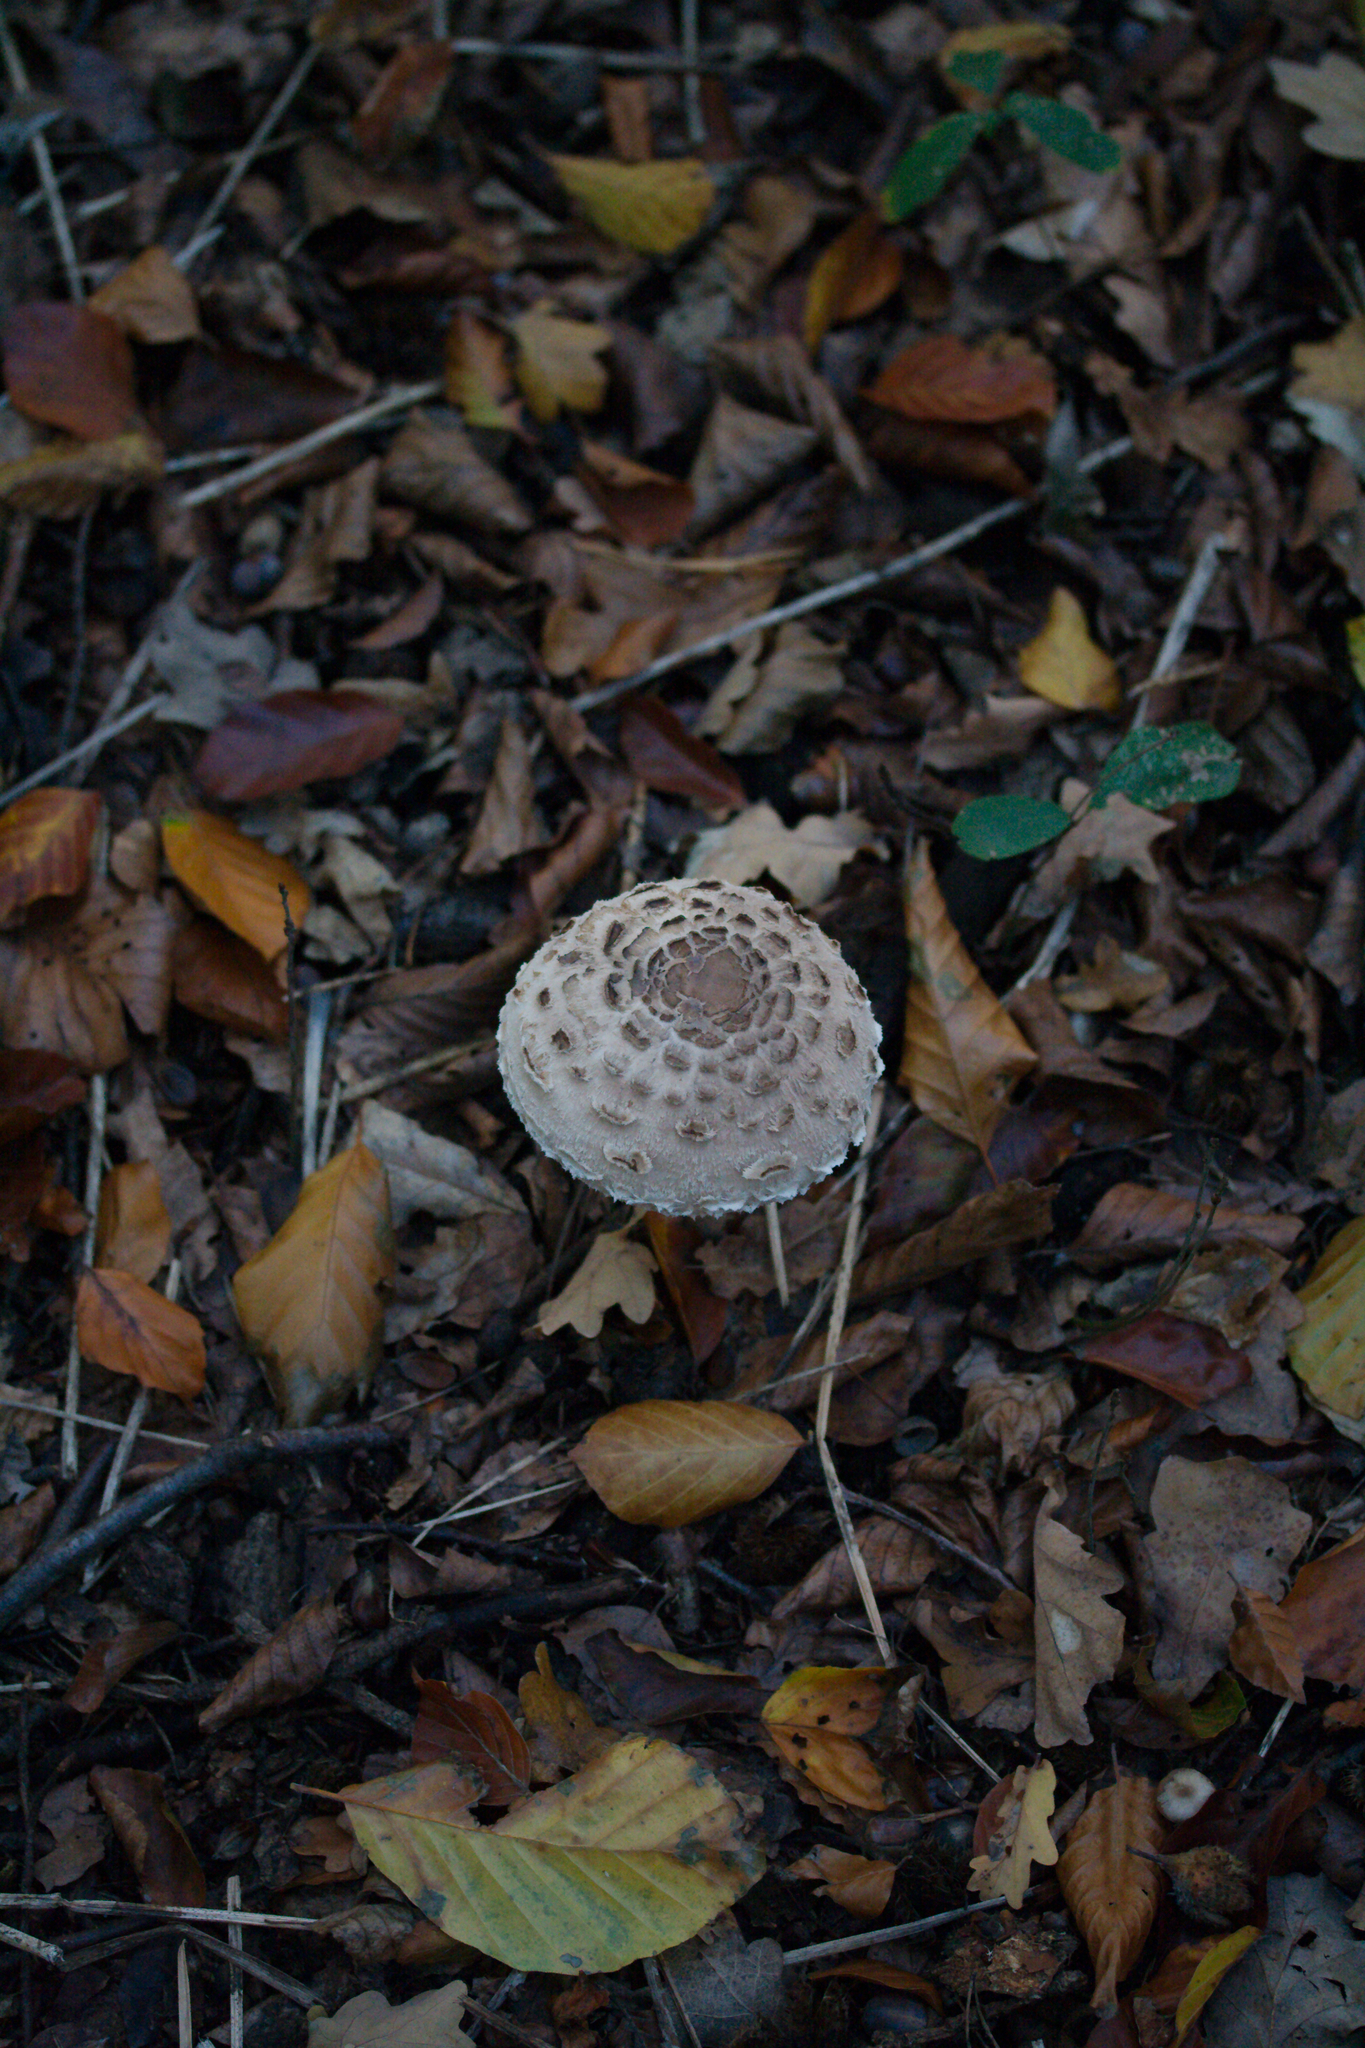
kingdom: Fungi
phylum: Basidiomycota
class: Agaricomycetes
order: Agaricales
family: Agaricaceae
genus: Macrolepiota
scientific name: Macrolepiota procera
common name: Parasol
